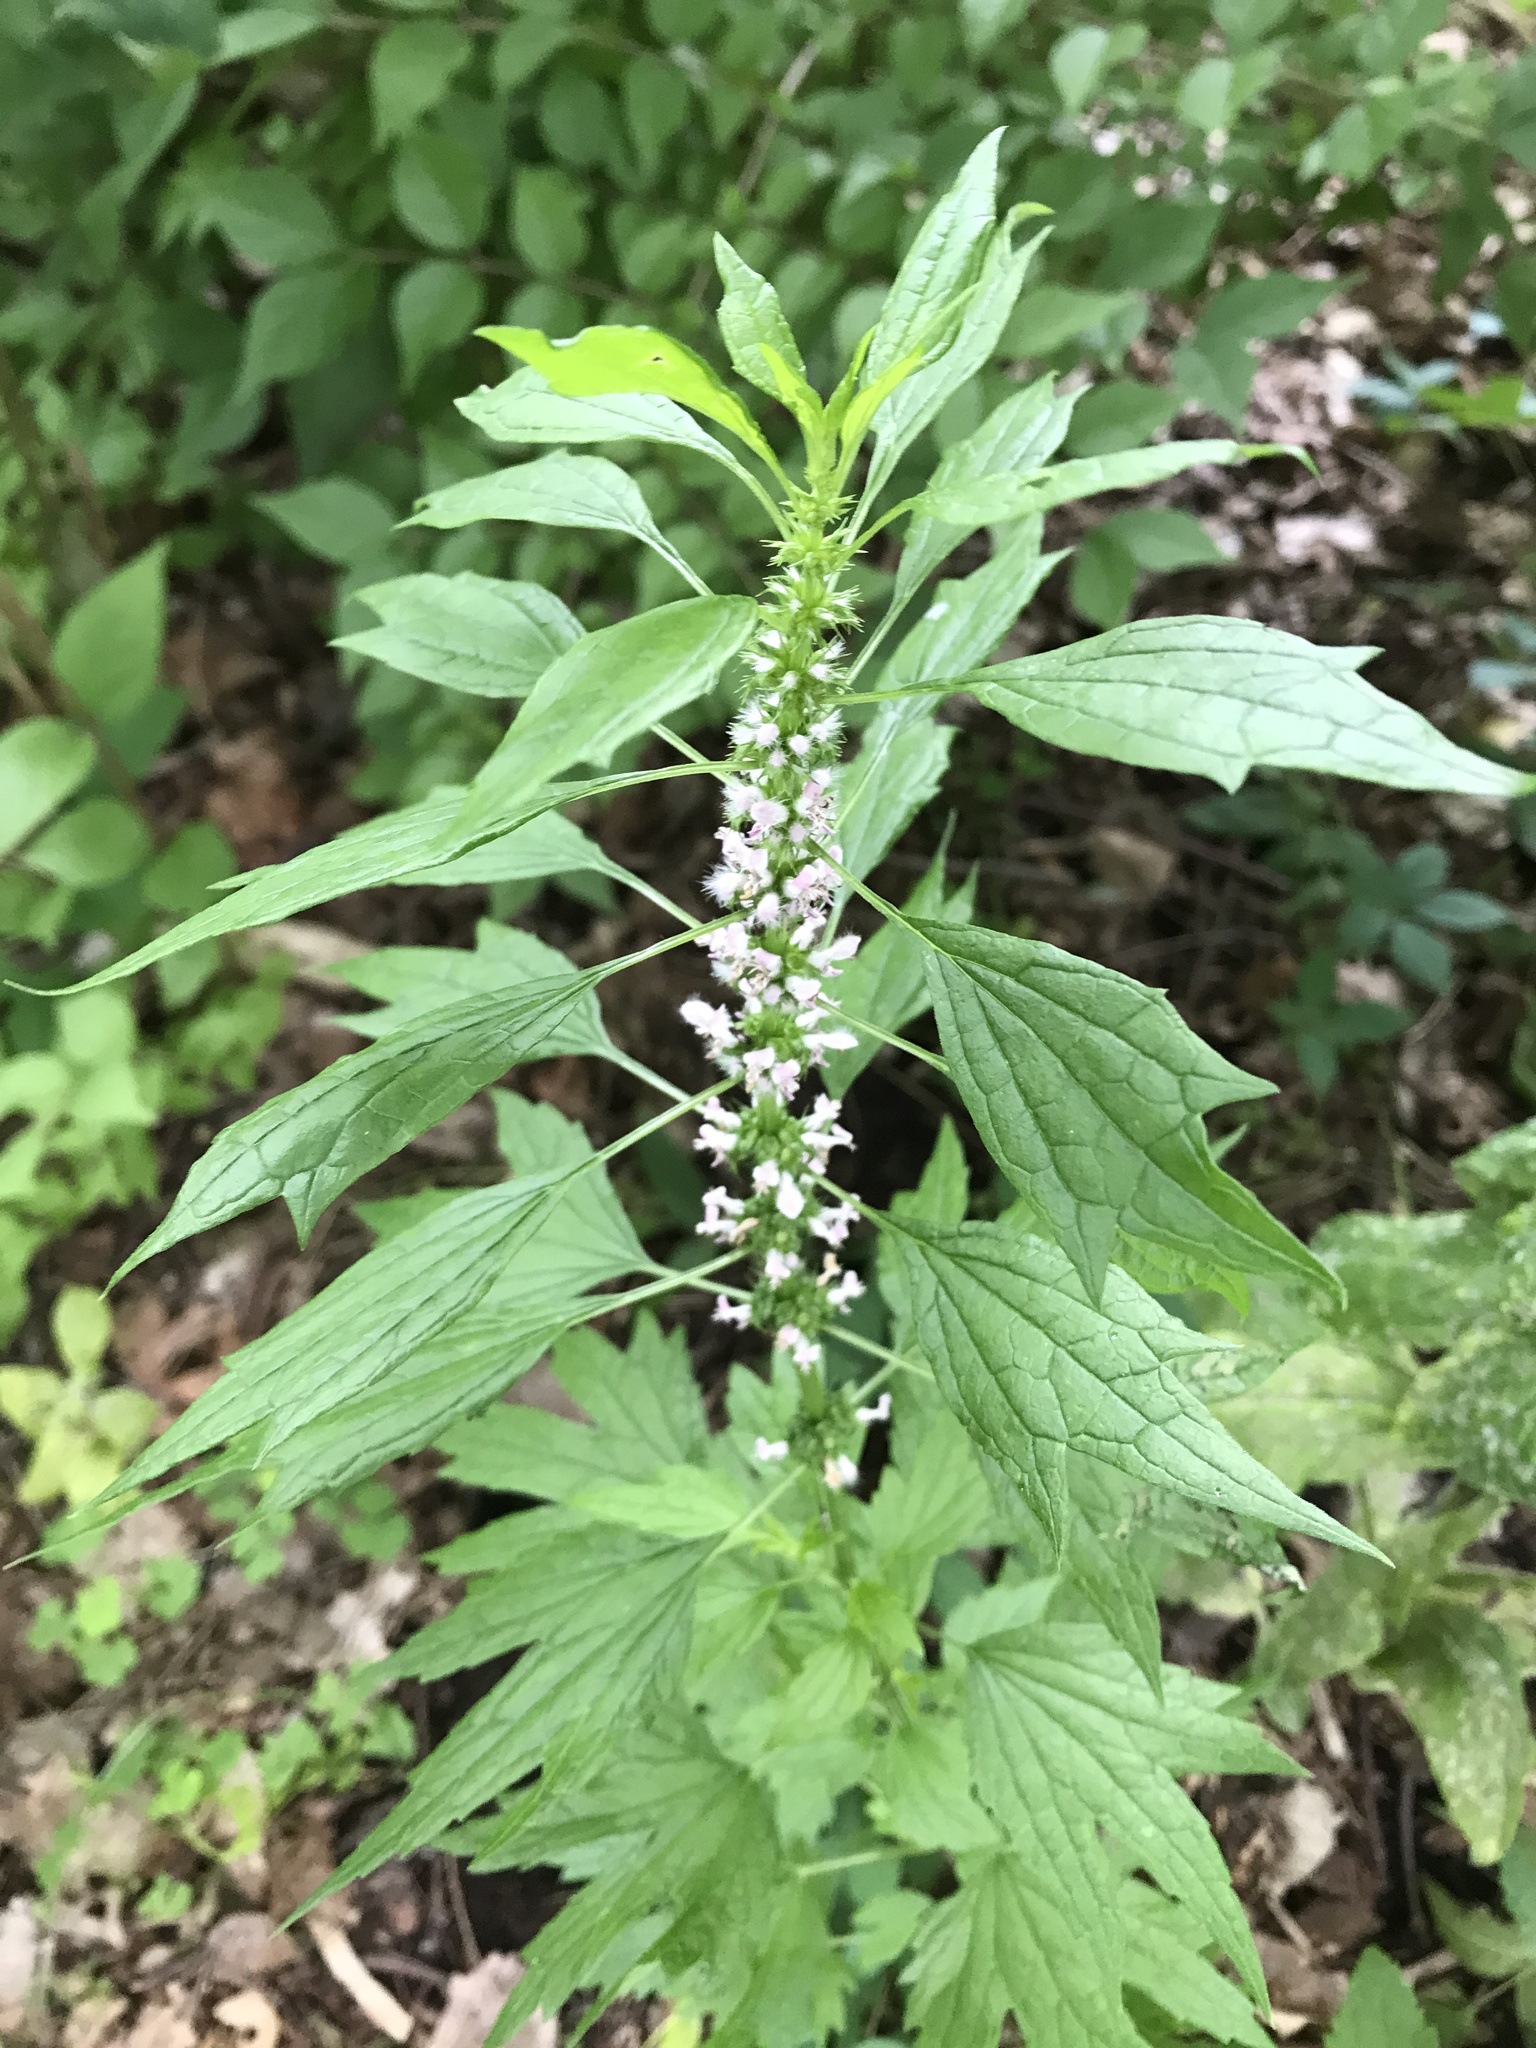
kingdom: Plantae
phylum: Tracheophyta
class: Magnoliopsida
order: Lamiales
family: Lamiaceae
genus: Leonurus
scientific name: Leonurus cardiaca
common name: Motherwort
